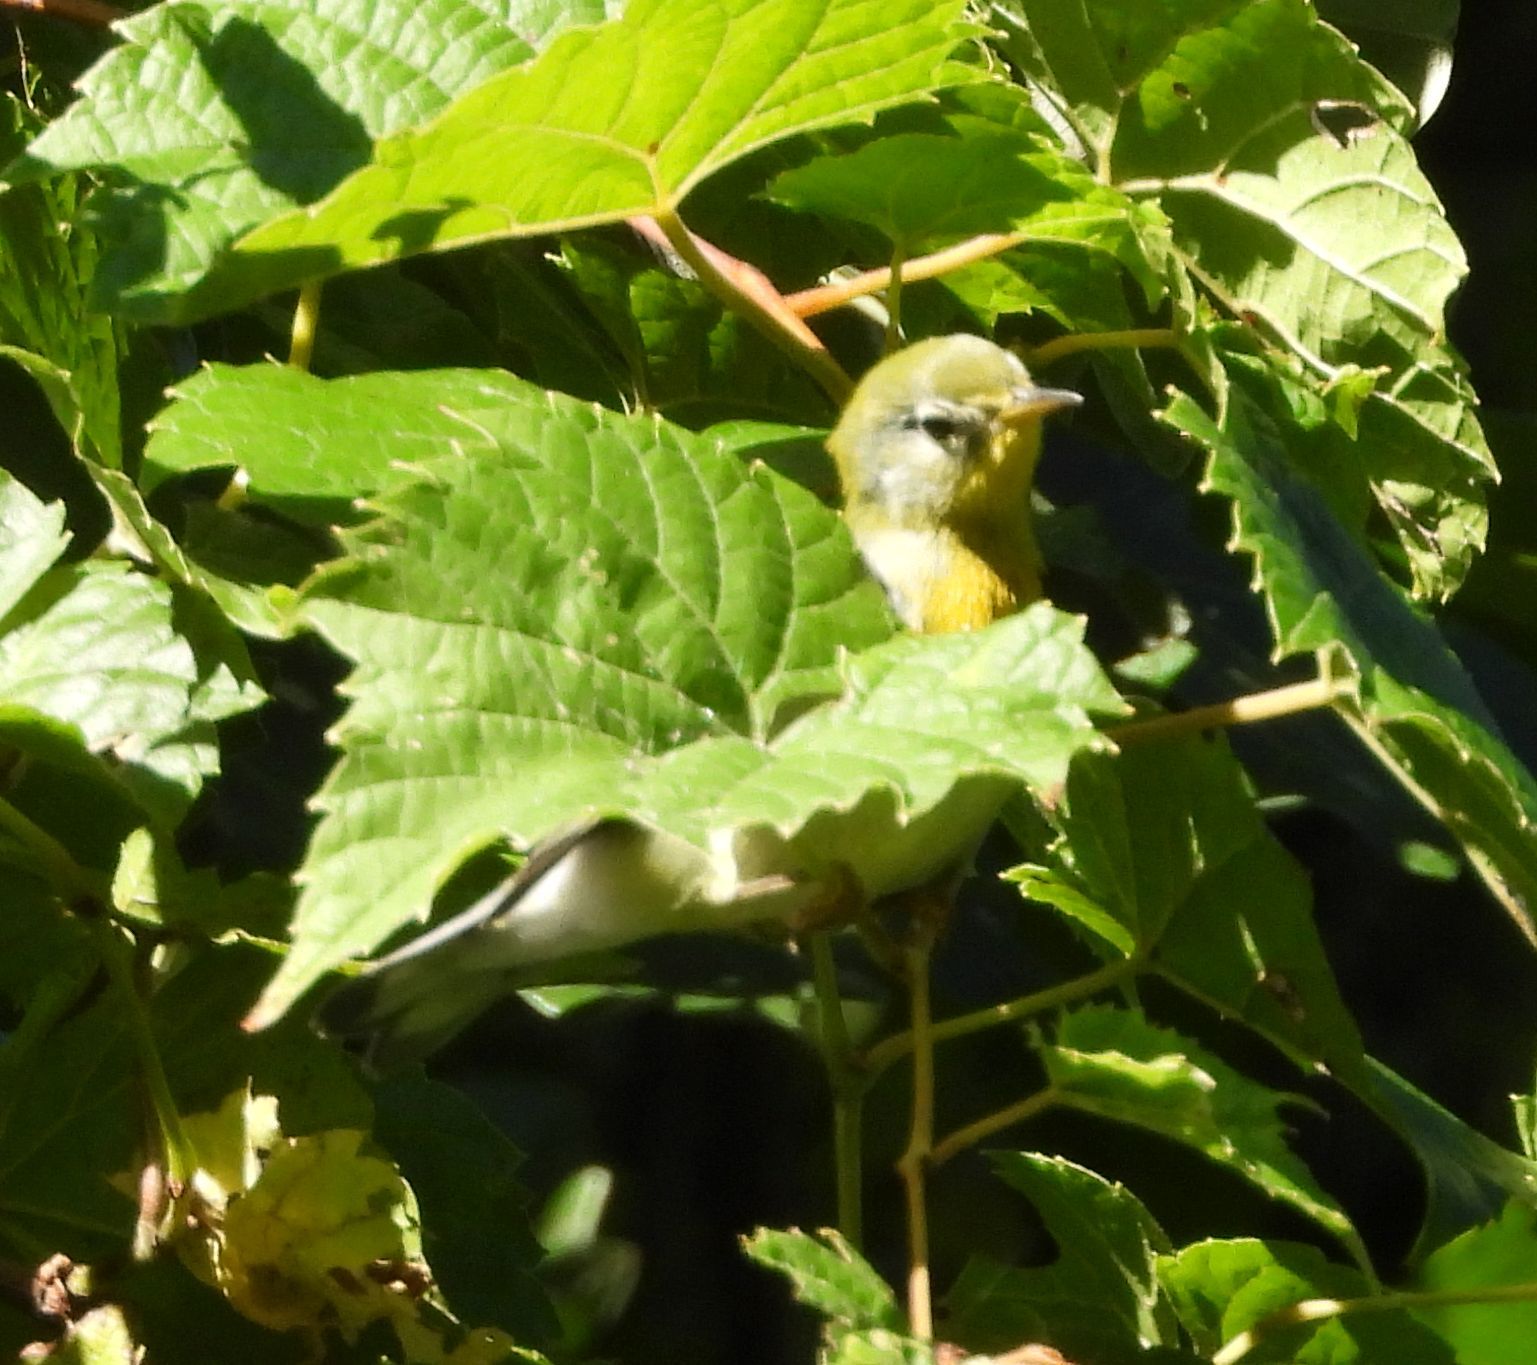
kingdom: Animalia
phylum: Chordata
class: Aves
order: Passeriformes
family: Parulidae
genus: Setophaga
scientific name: Setophaga americana
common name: Northern parula
